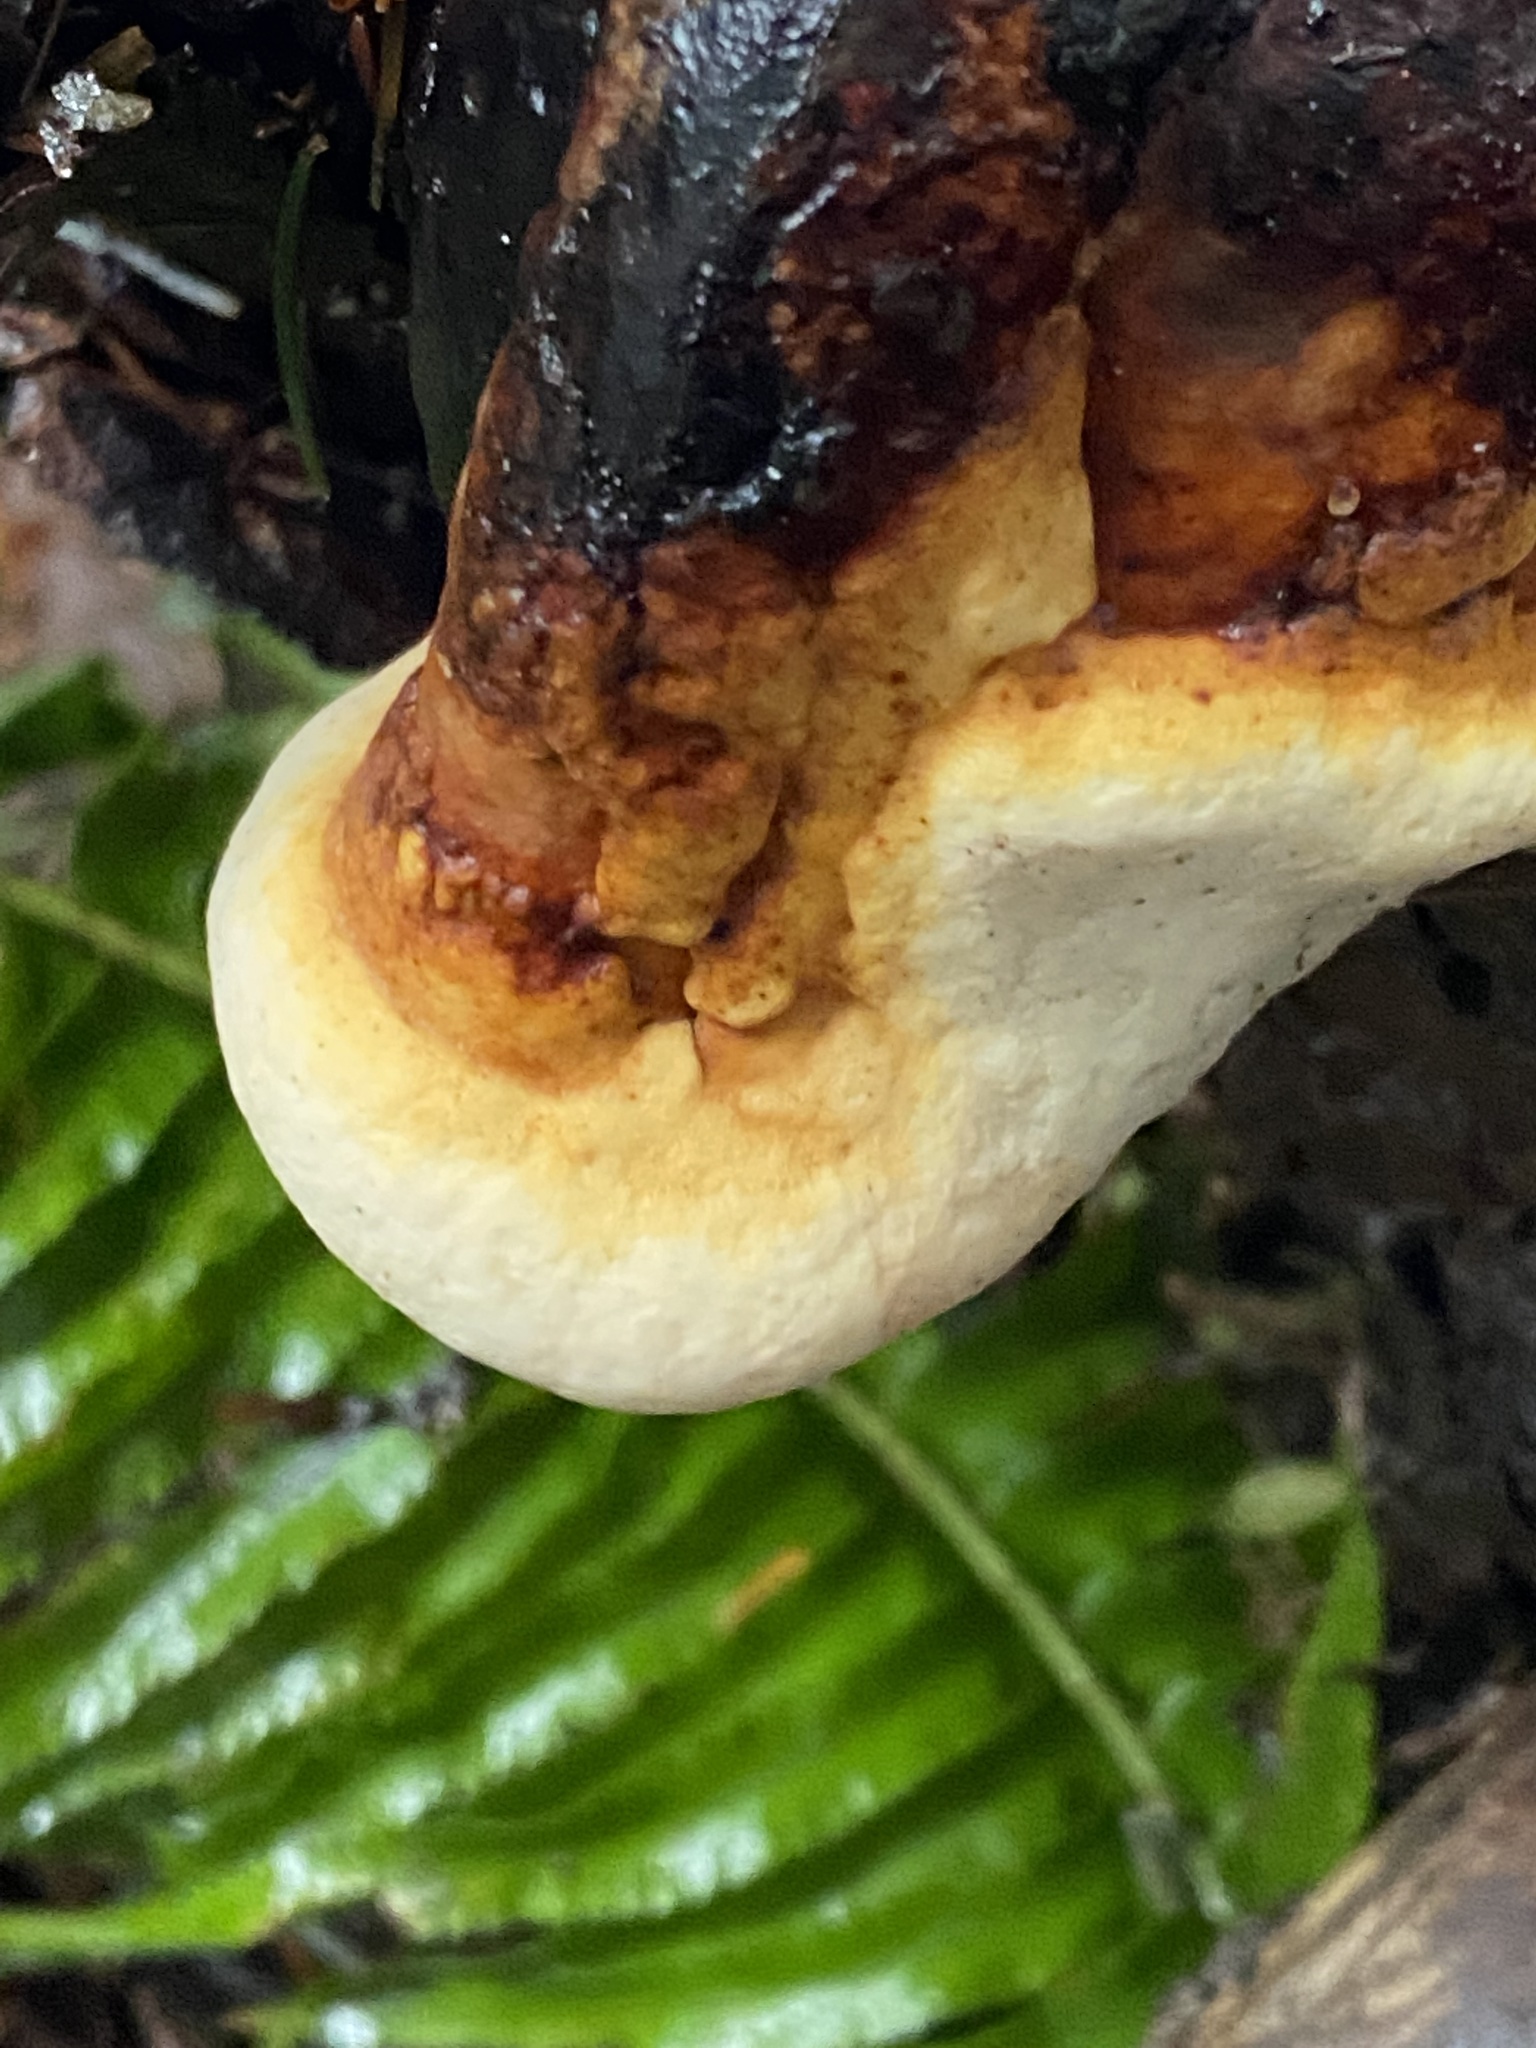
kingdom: Fungi
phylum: Basidiomycota
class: Agaricomycetes
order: Polyporales
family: Fomitopsidaceae
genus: Fomitopsis
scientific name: Fomitopsis mounceae
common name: Northern red belt
